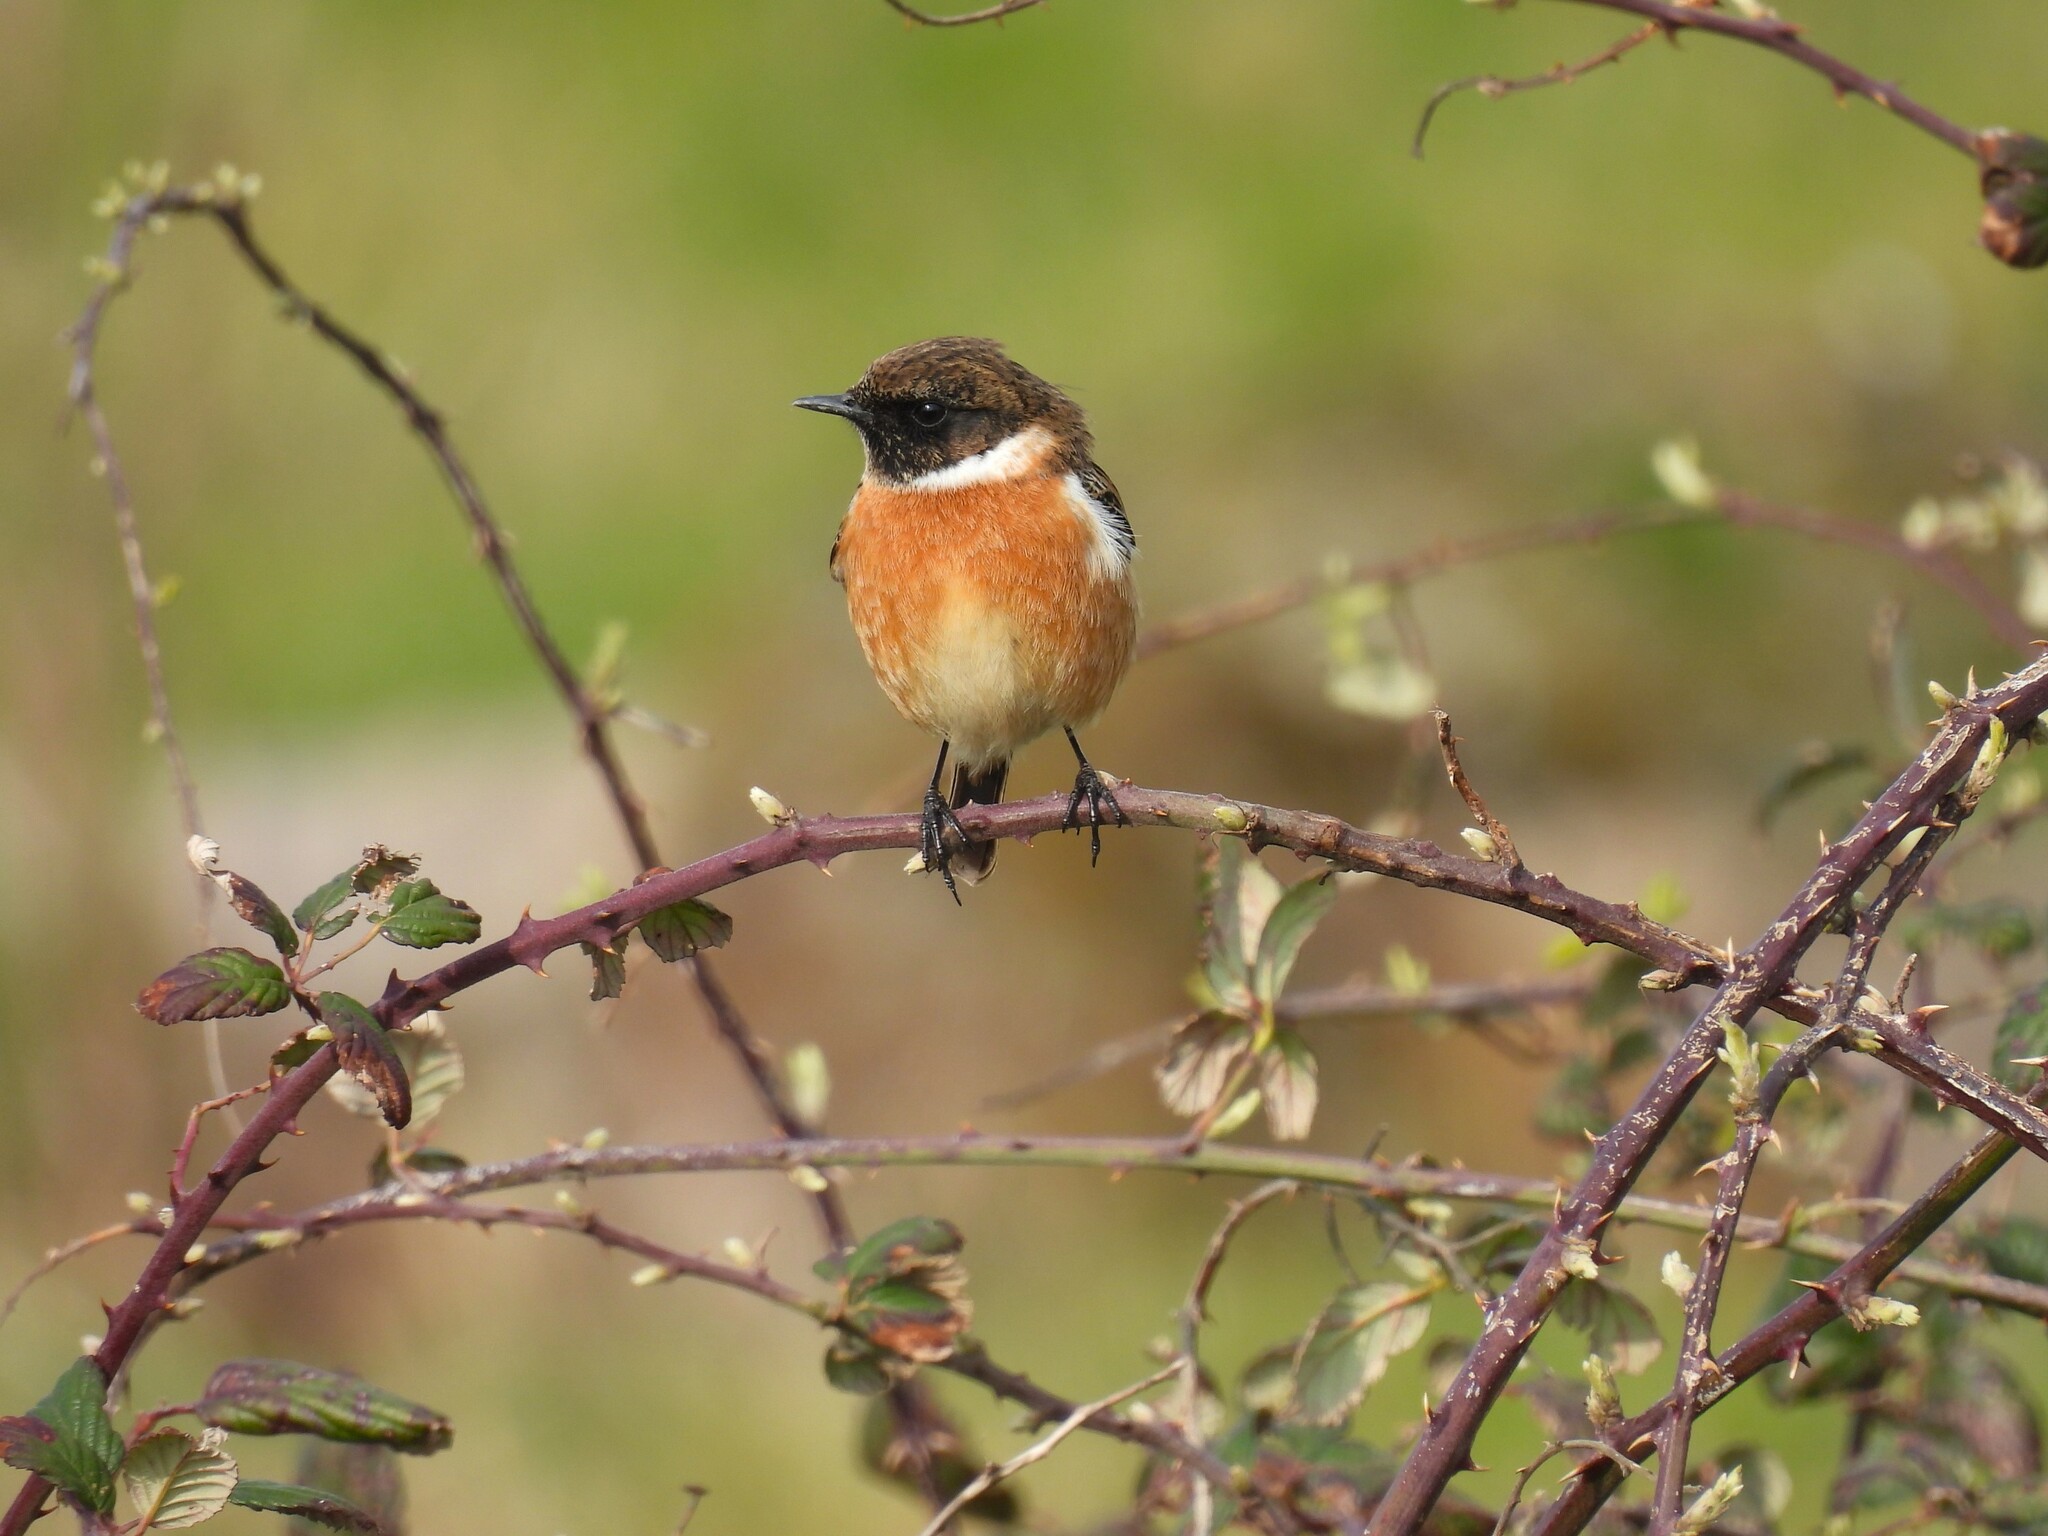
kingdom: Animalia
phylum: Chordata
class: Aves
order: Passeriformes
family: Muscicapidae
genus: Saxicola
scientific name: Saxicola rubicola
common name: European stonechat
